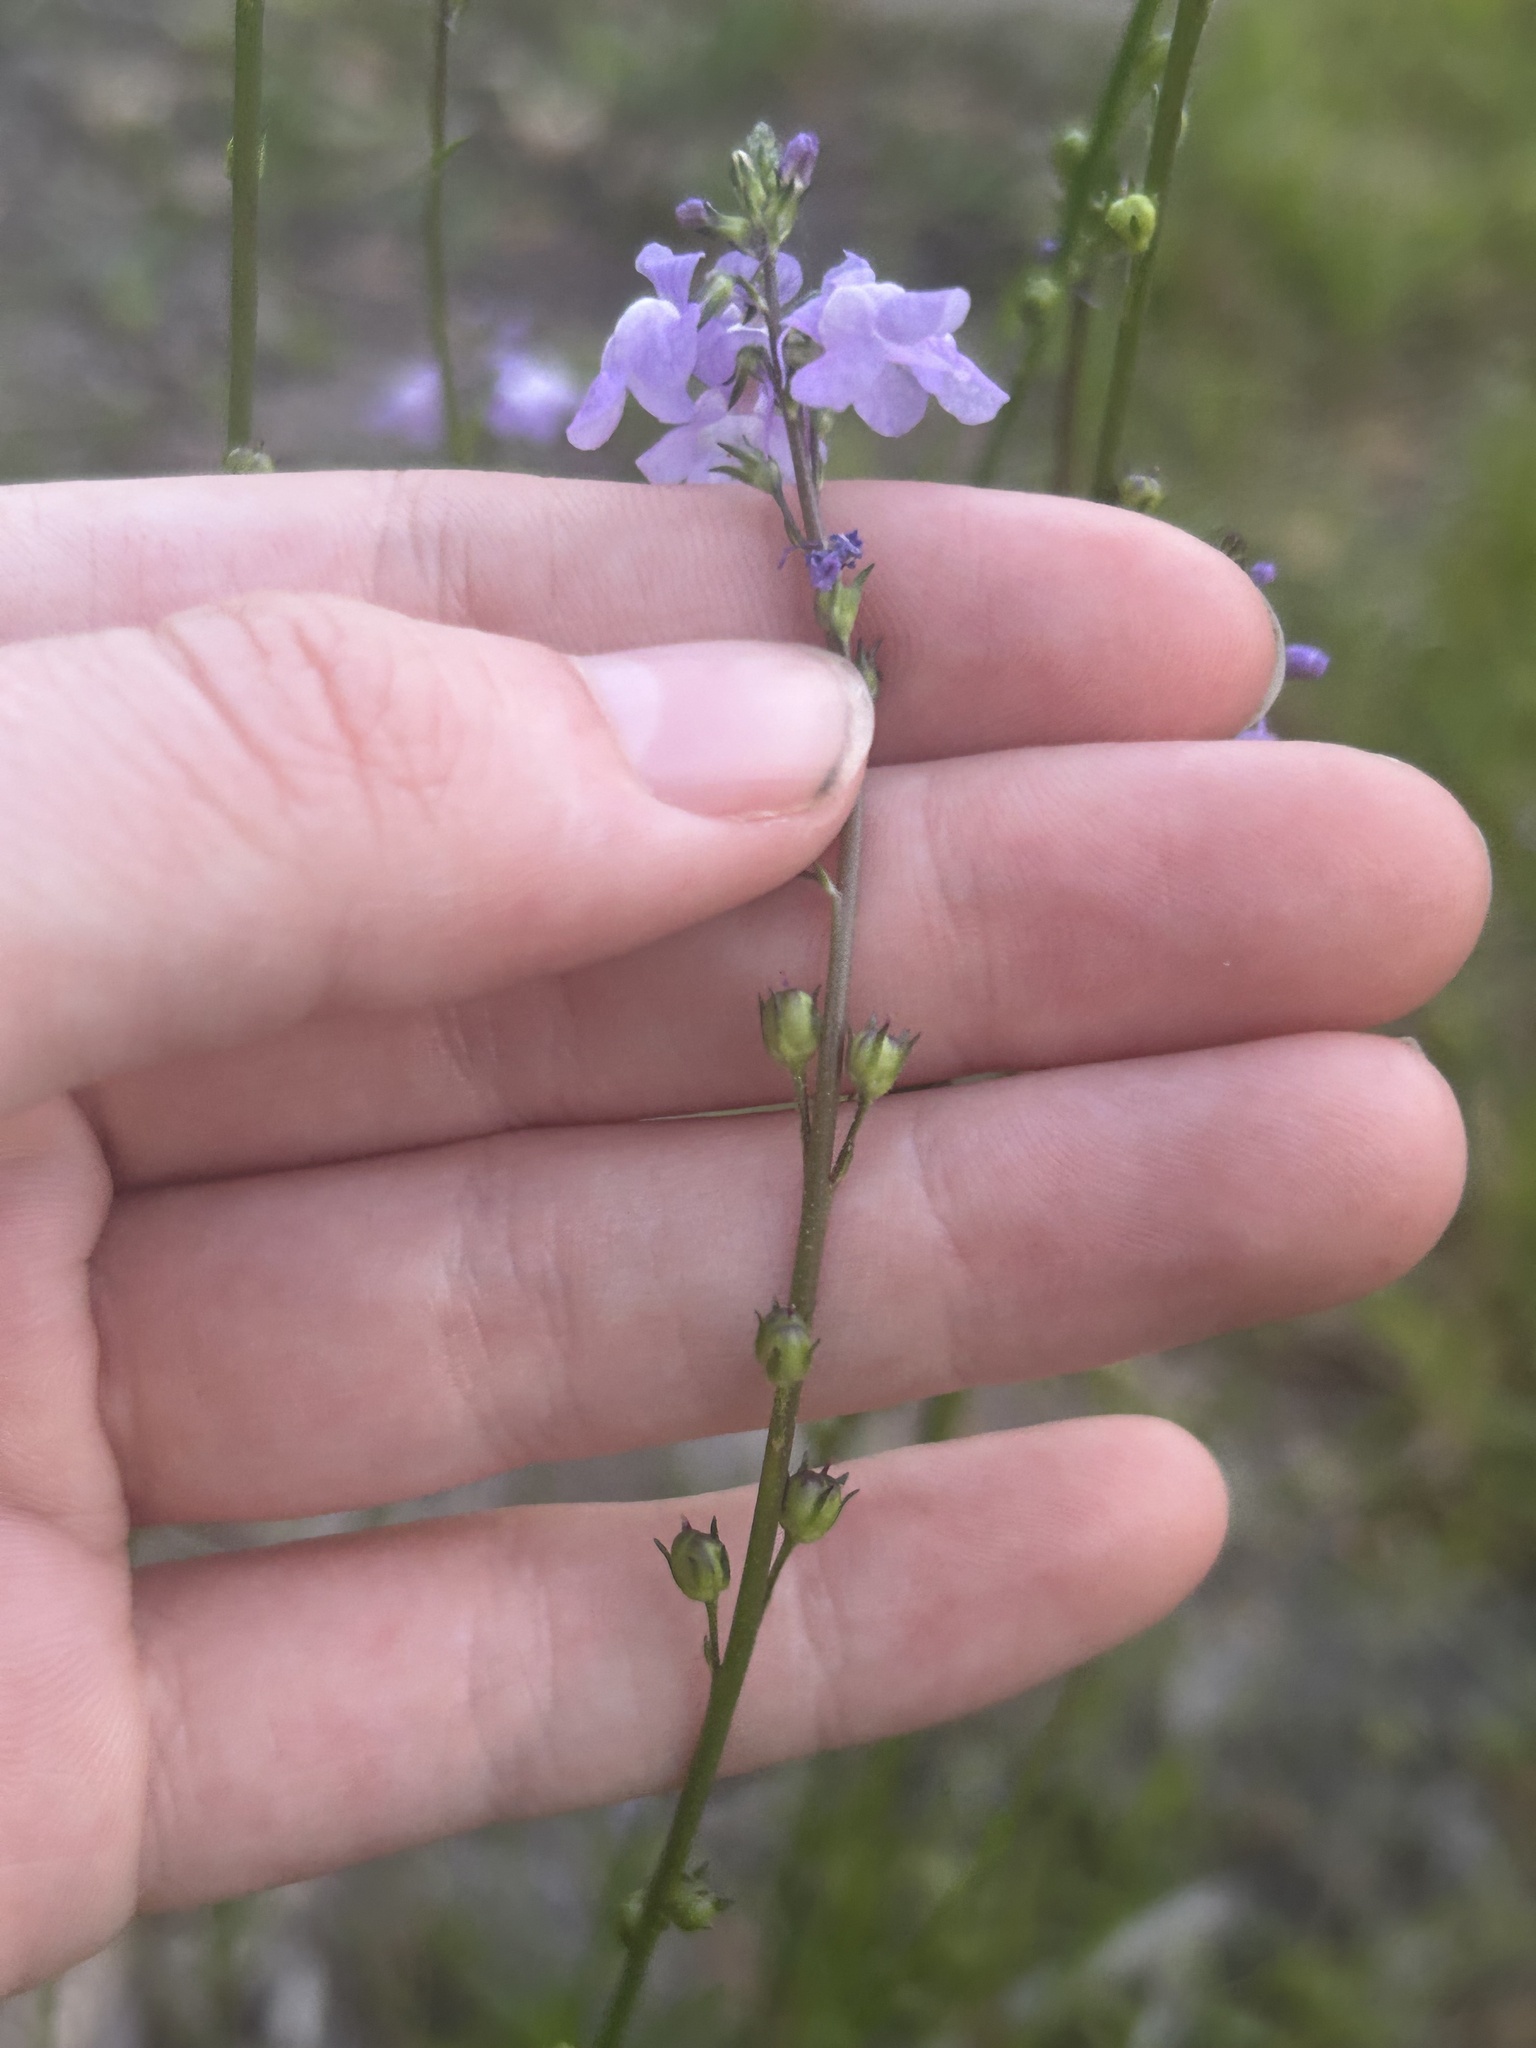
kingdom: Plantae
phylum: Tracheophyta
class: Magnoliopsida
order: Lamiales
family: Plantaginaceae
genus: Nuttallanthus
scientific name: Nuttallanthus canadensis
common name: Blue toadflax
